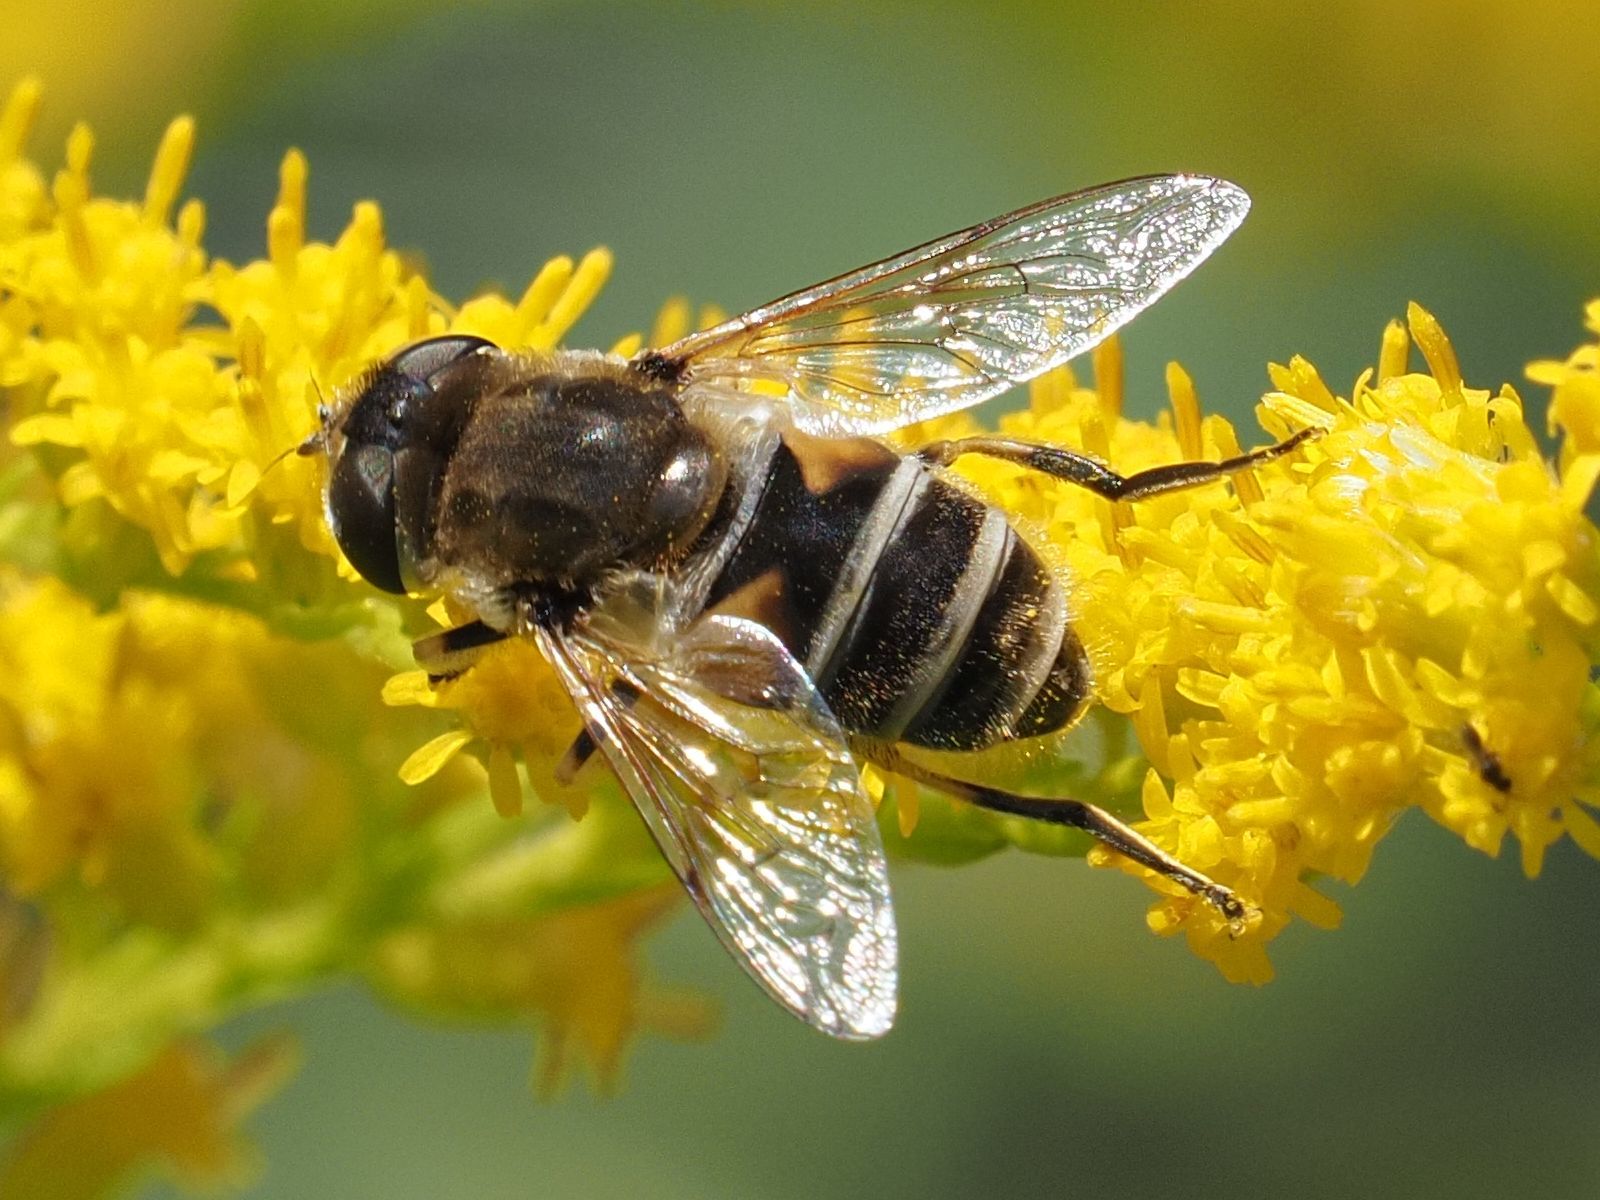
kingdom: Animalia
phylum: Arthropoda
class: Insecta
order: Diptera
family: Syrphidae
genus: Eristalis
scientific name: Eristalis arbustorum
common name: Hover fly
